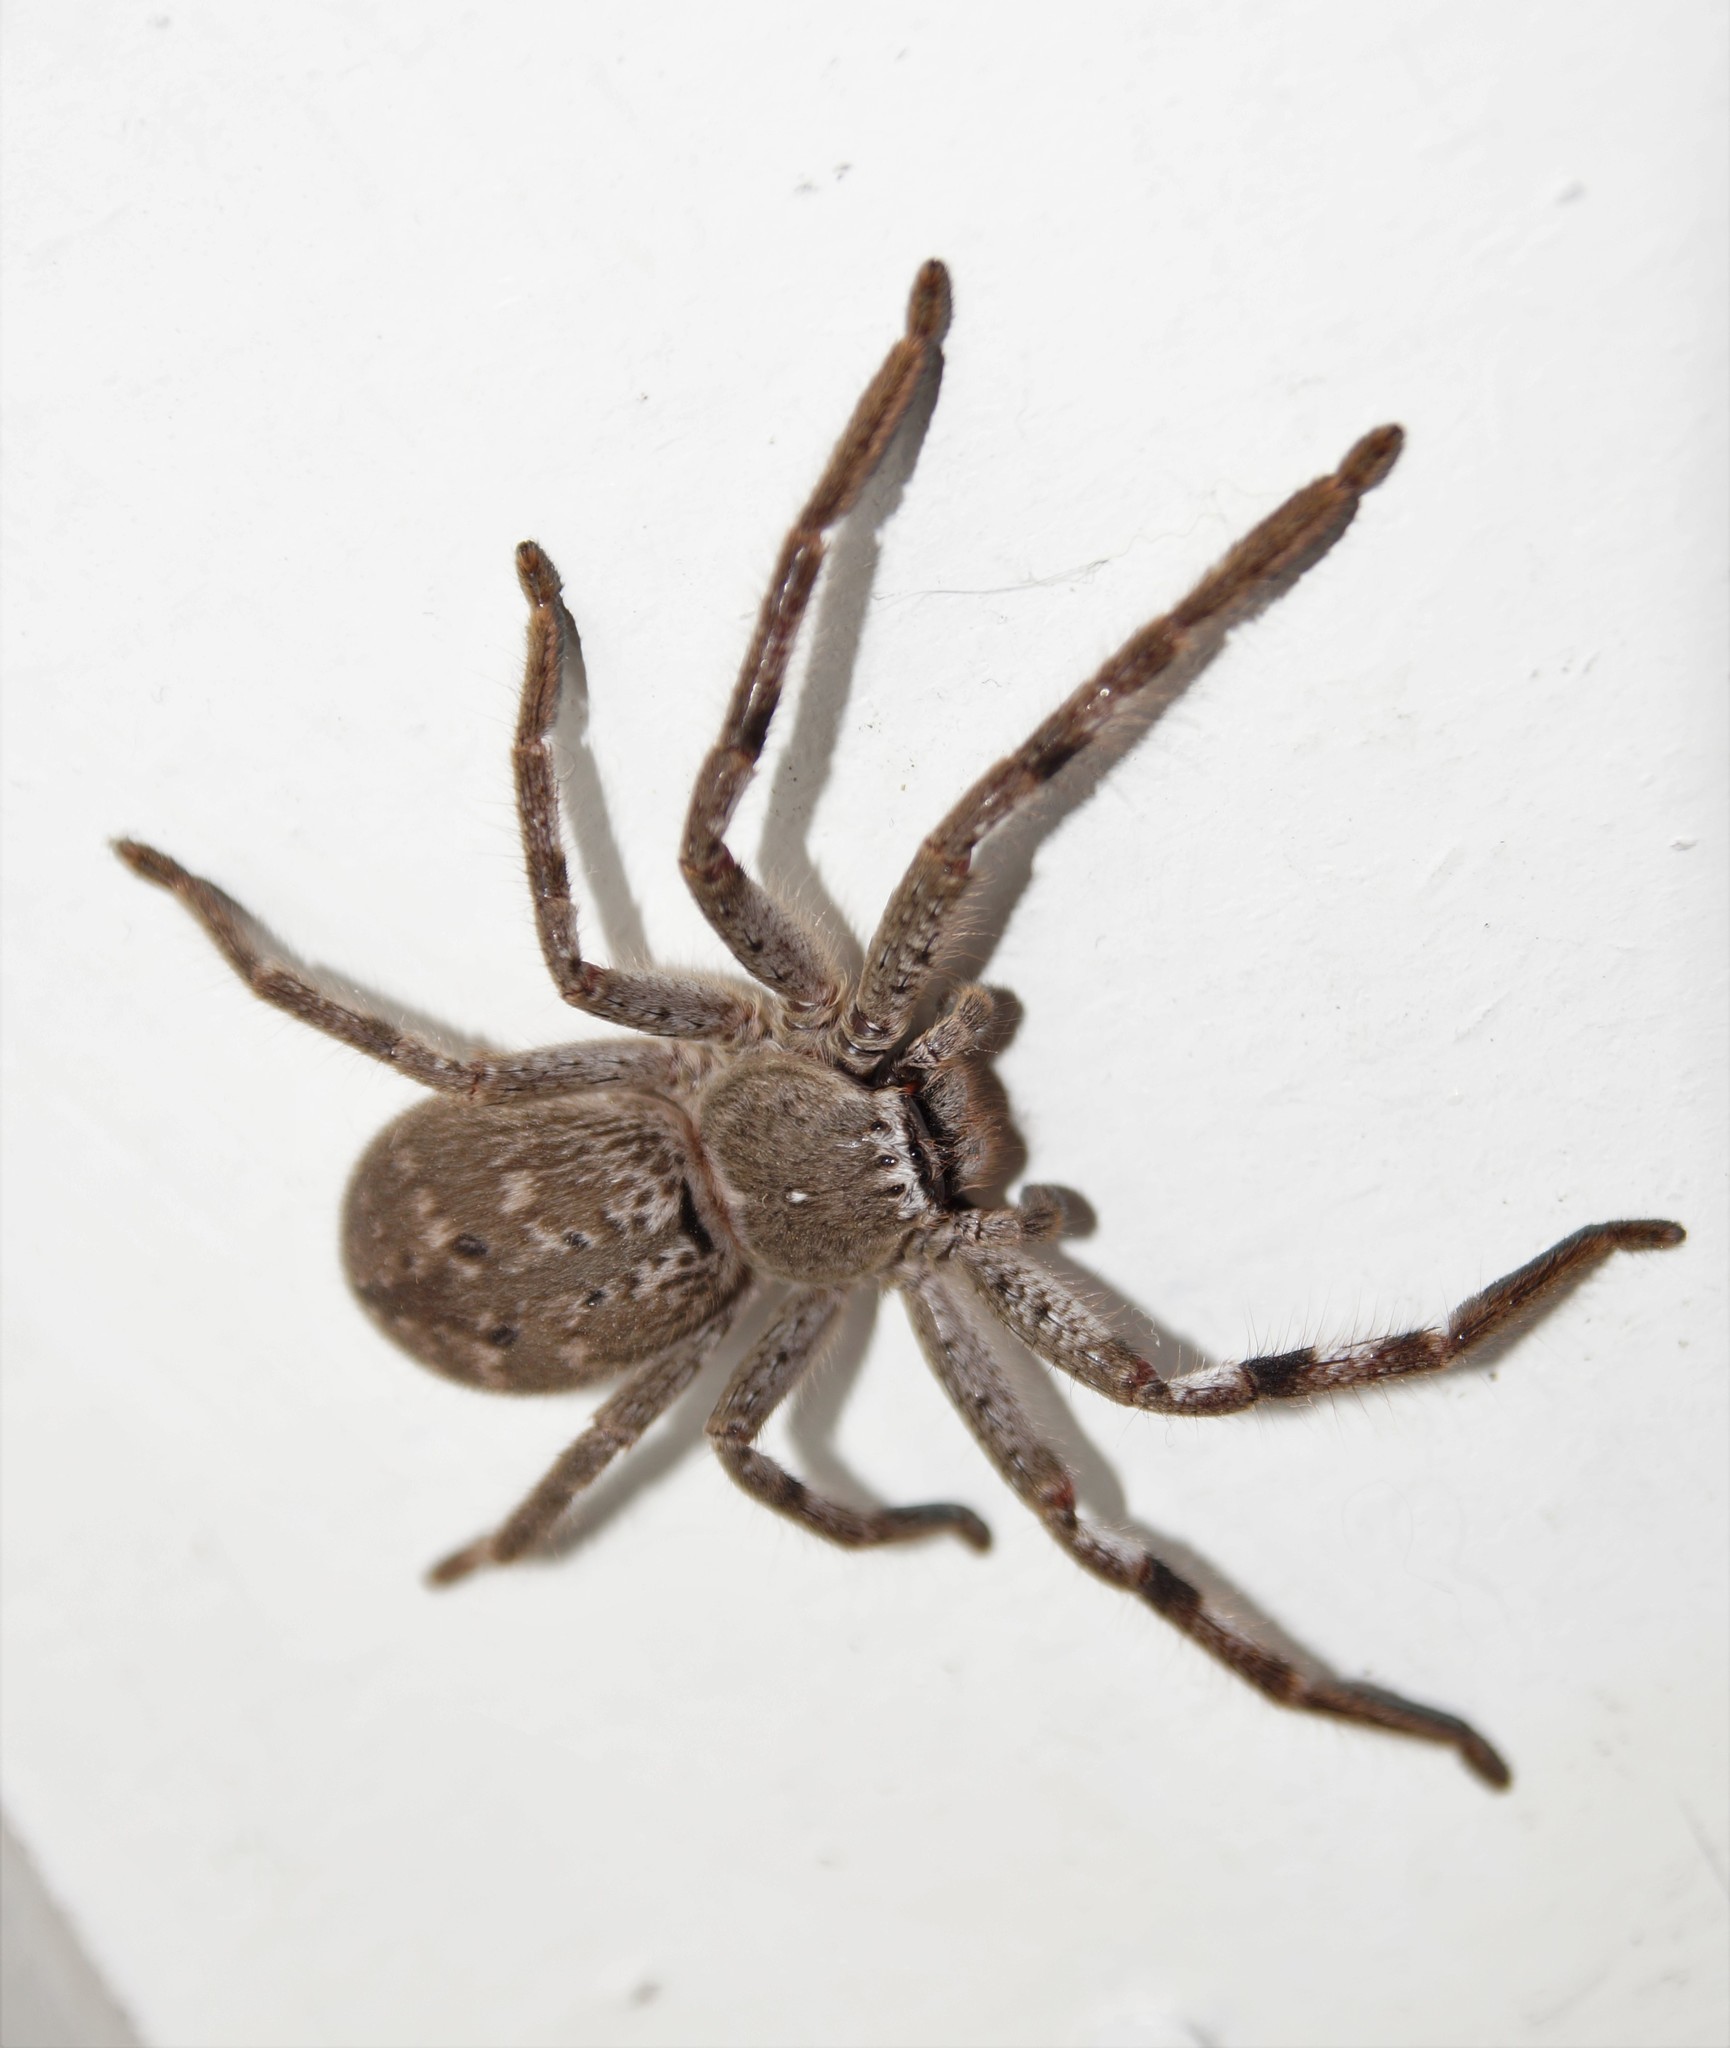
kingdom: Animalia
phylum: Arthropoda
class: Arachnida
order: Araneae
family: Sparassidae
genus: Isopedella
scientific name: Isopedella victorialis
